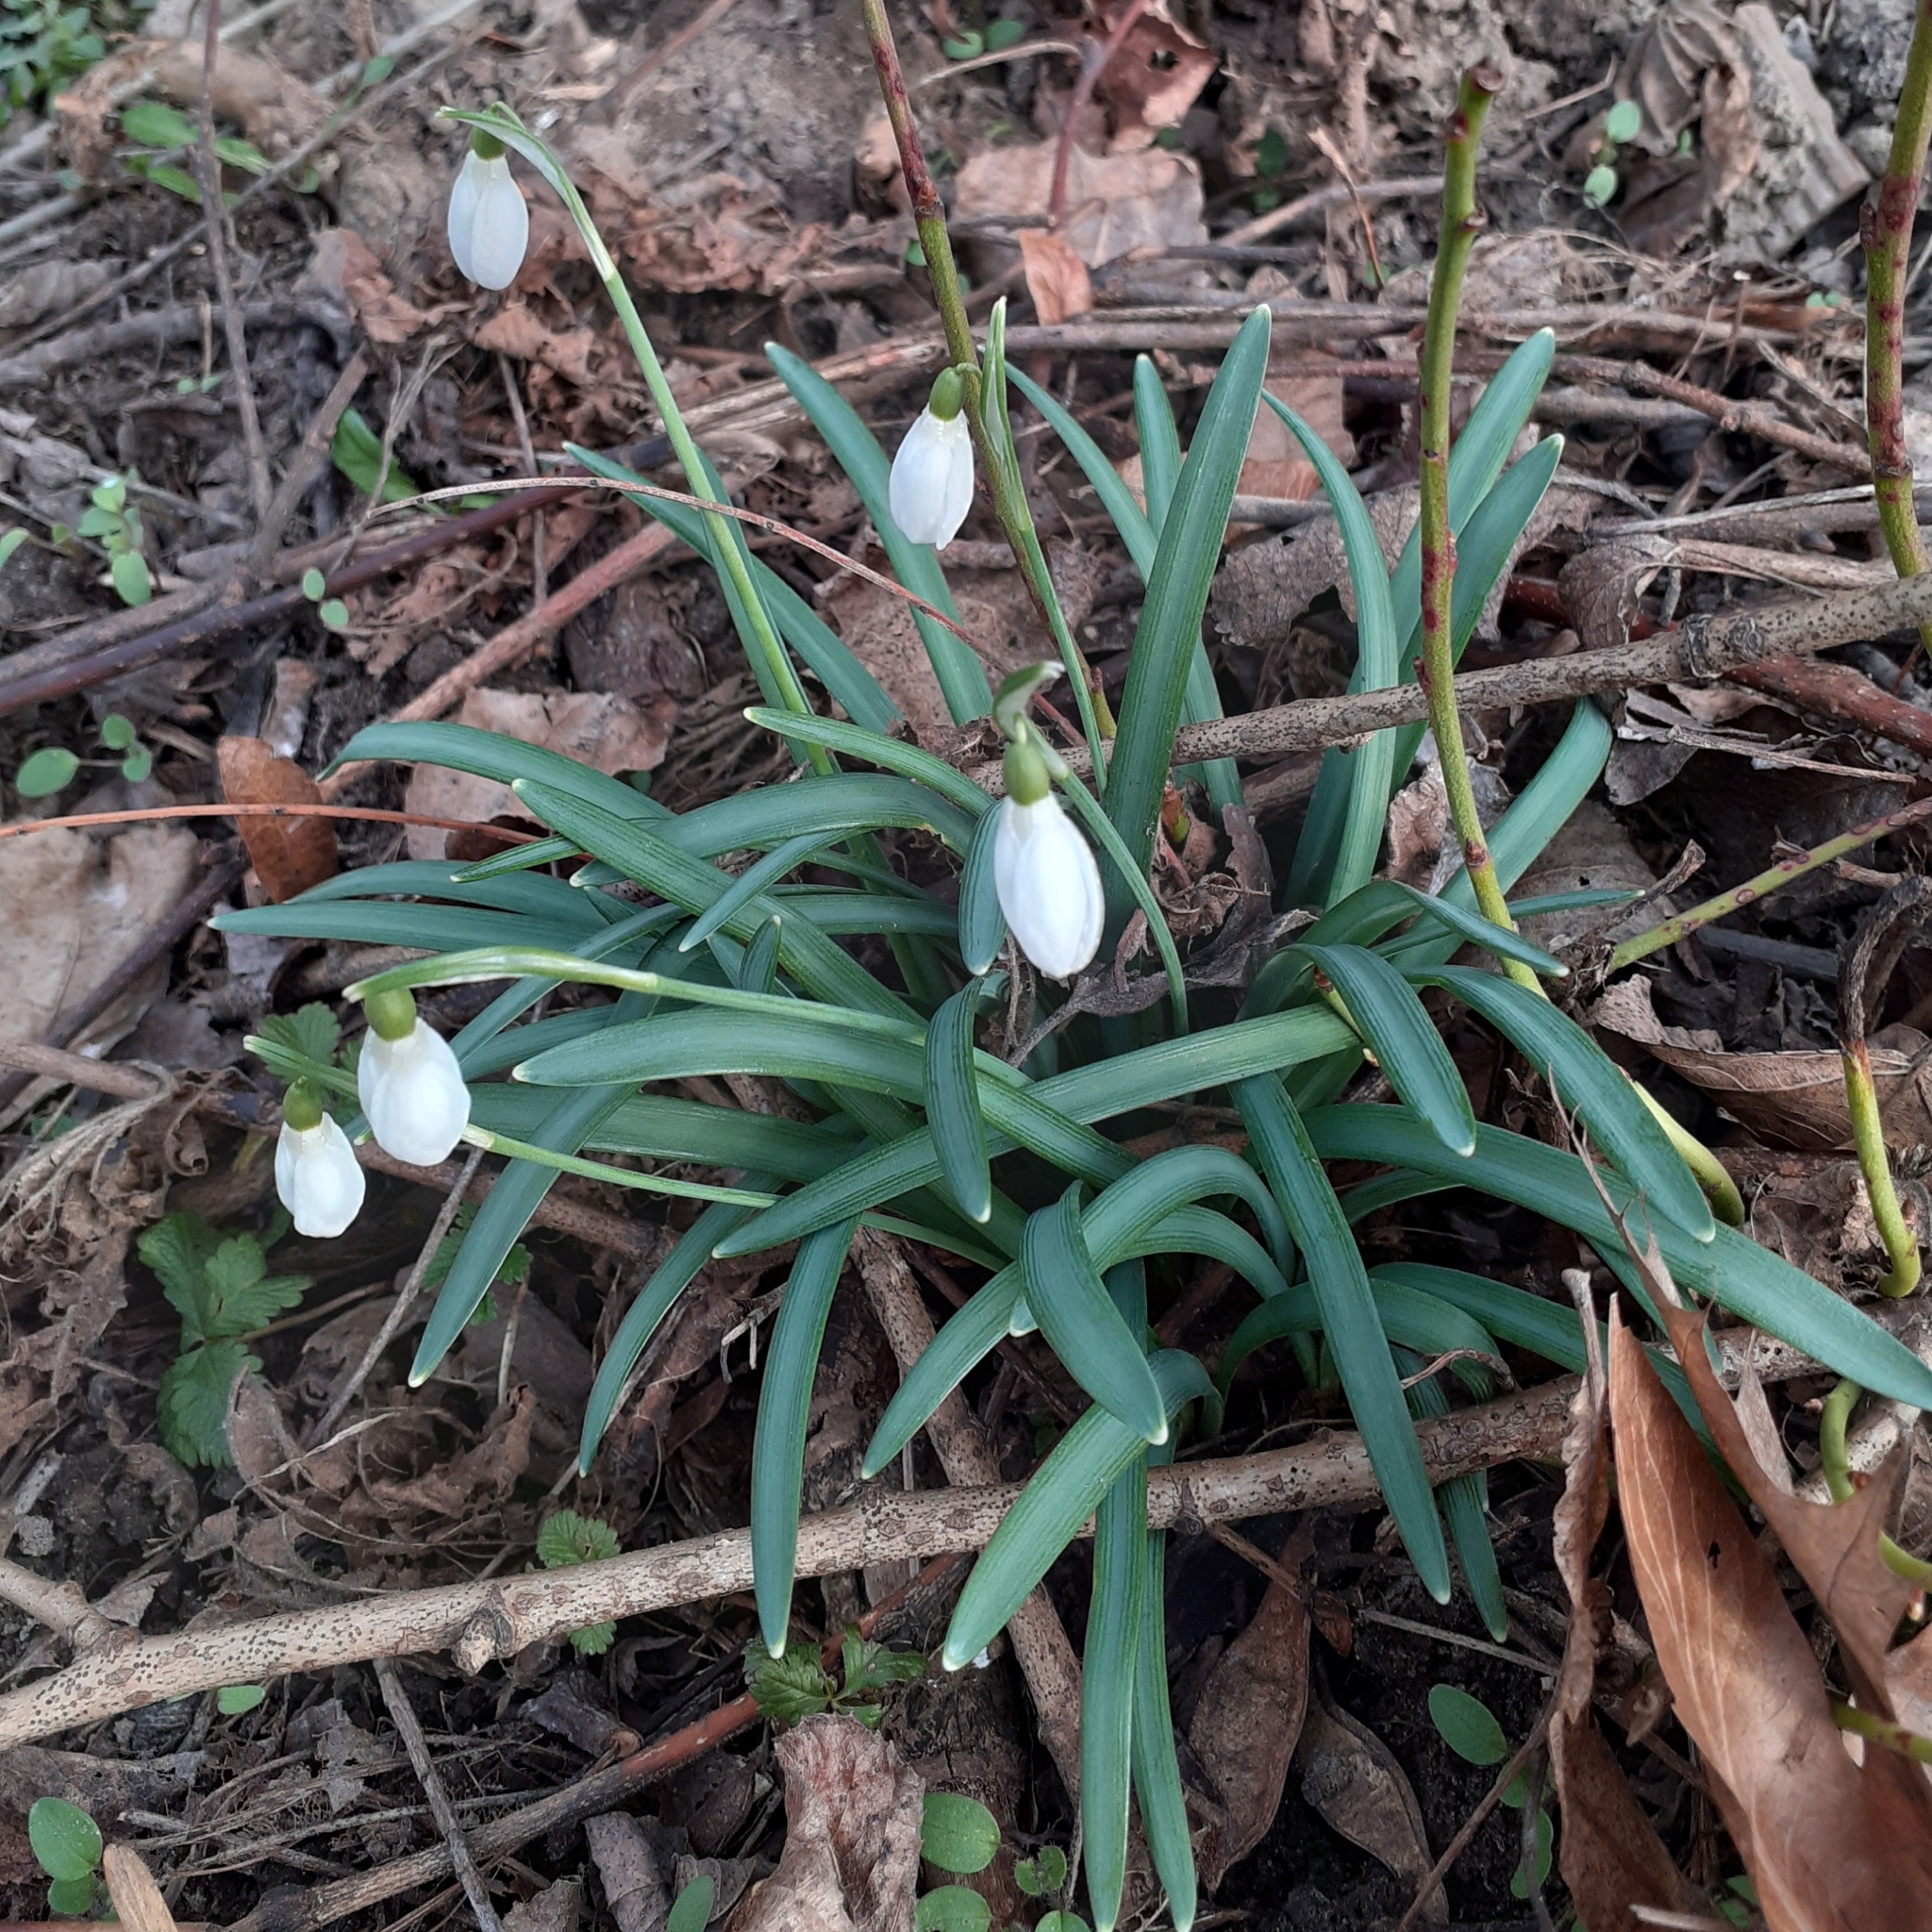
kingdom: Plantae
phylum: Tracheophyta
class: Liliopsida
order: Asparagales
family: Amaryllidaceae
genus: Galanthus
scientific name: Galanthus nivalis
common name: Snowdrop
